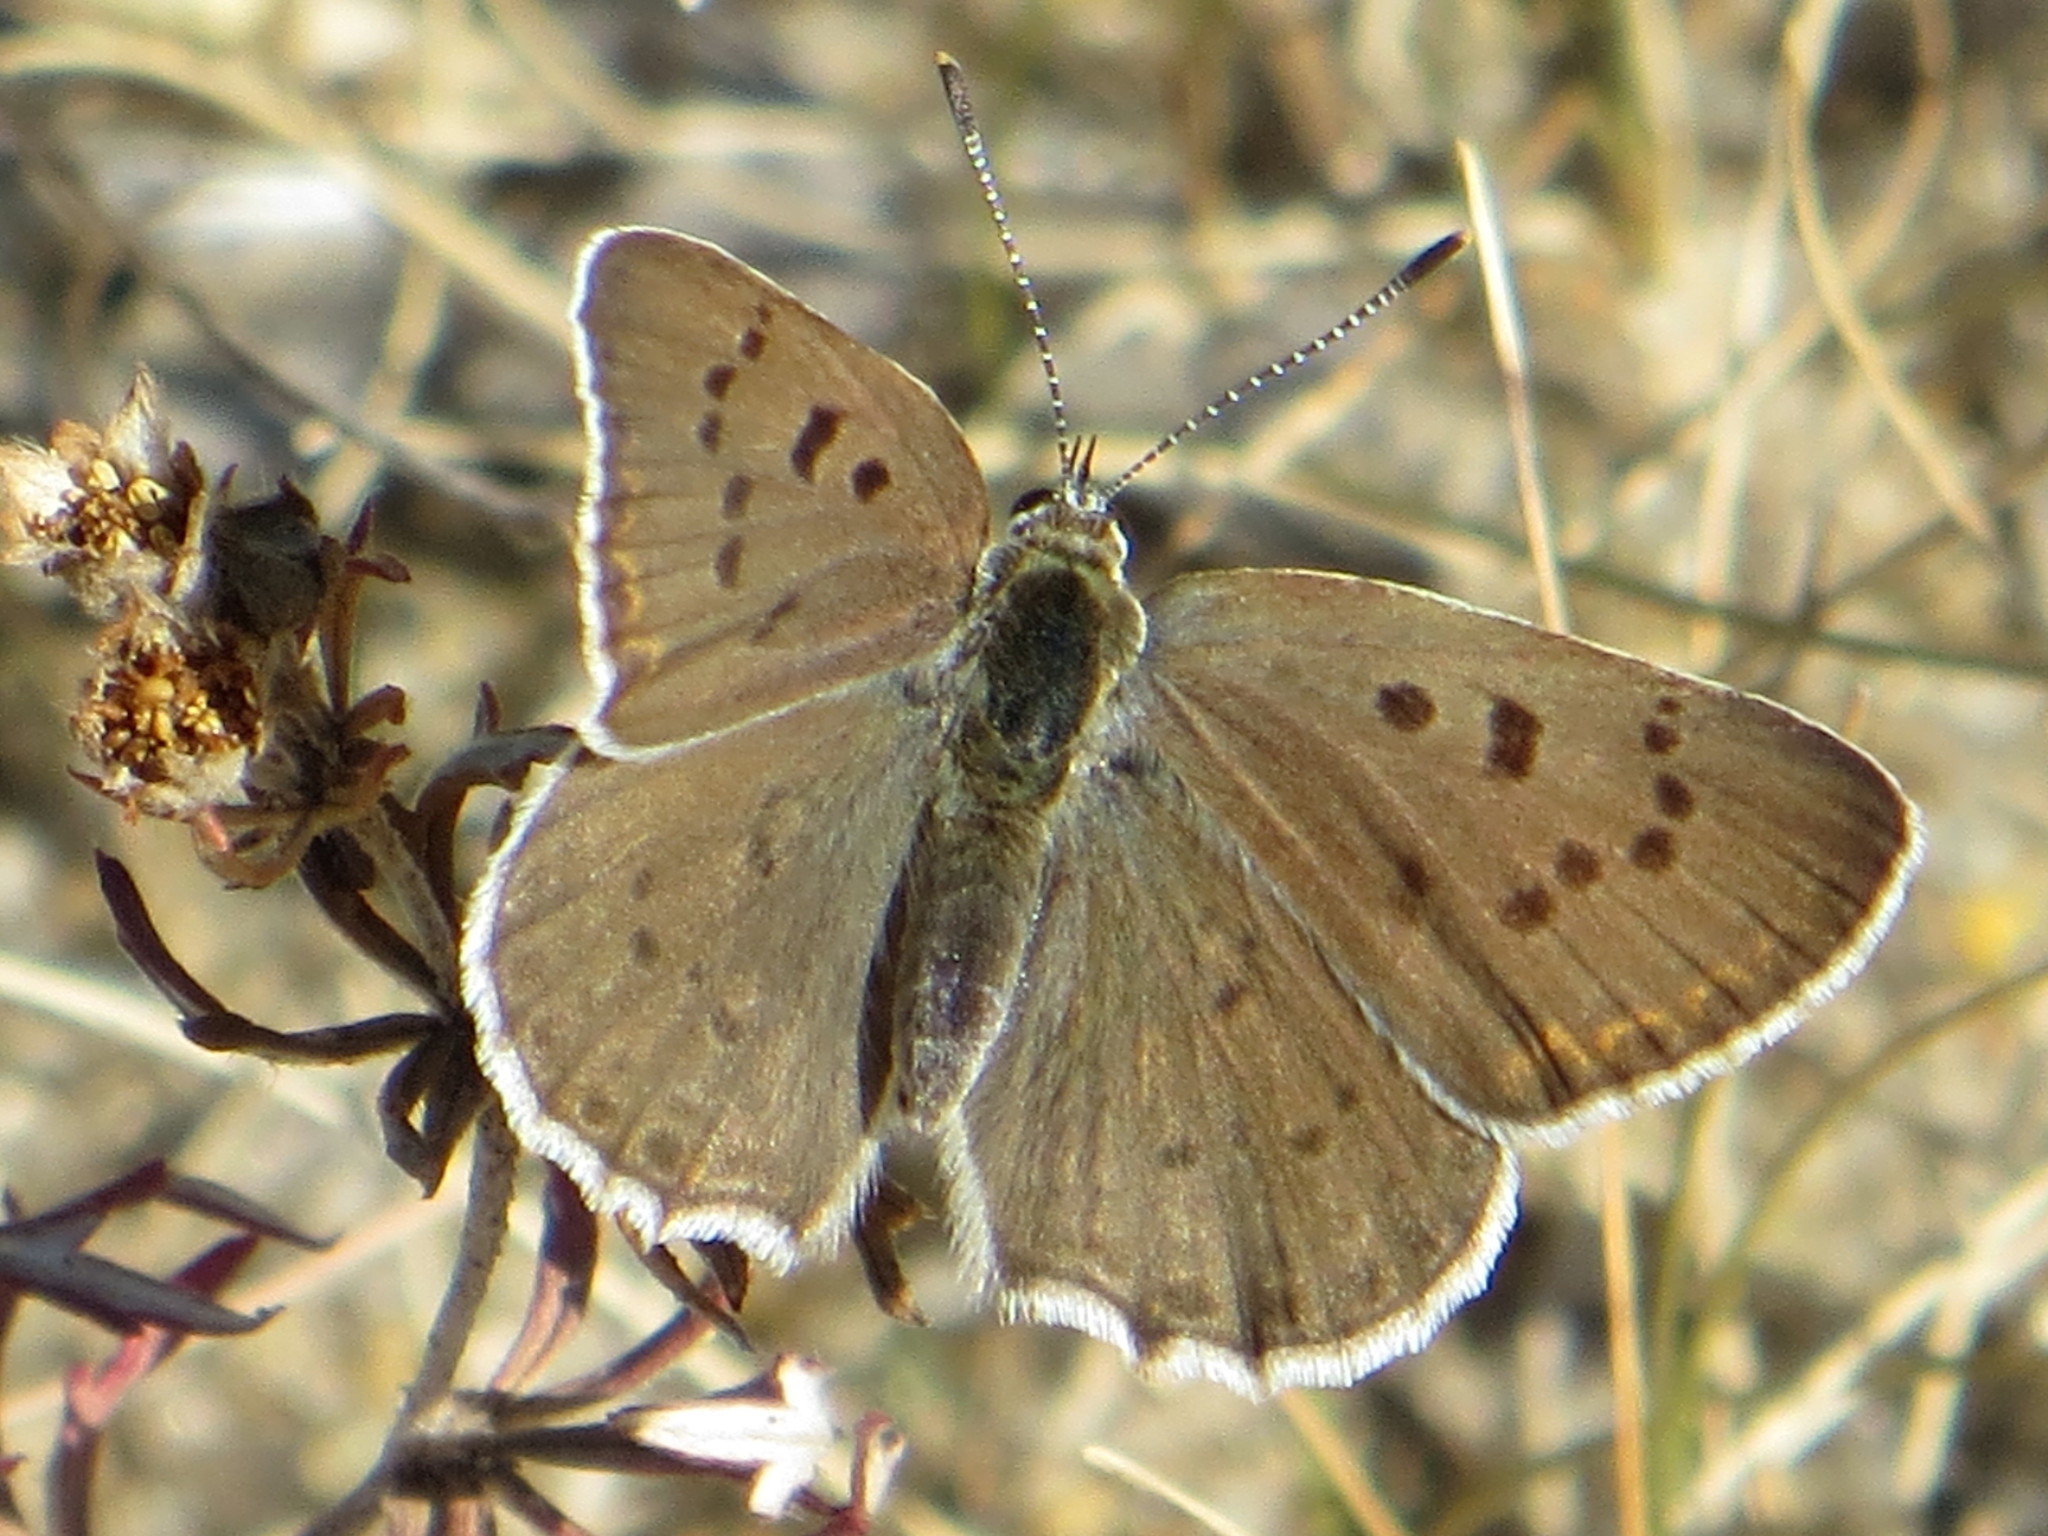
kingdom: Animalia
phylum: Arthropoda
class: Insecta
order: Lepidoptera
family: Lycaenidae
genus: Loweia
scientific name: Loweia tityrus
